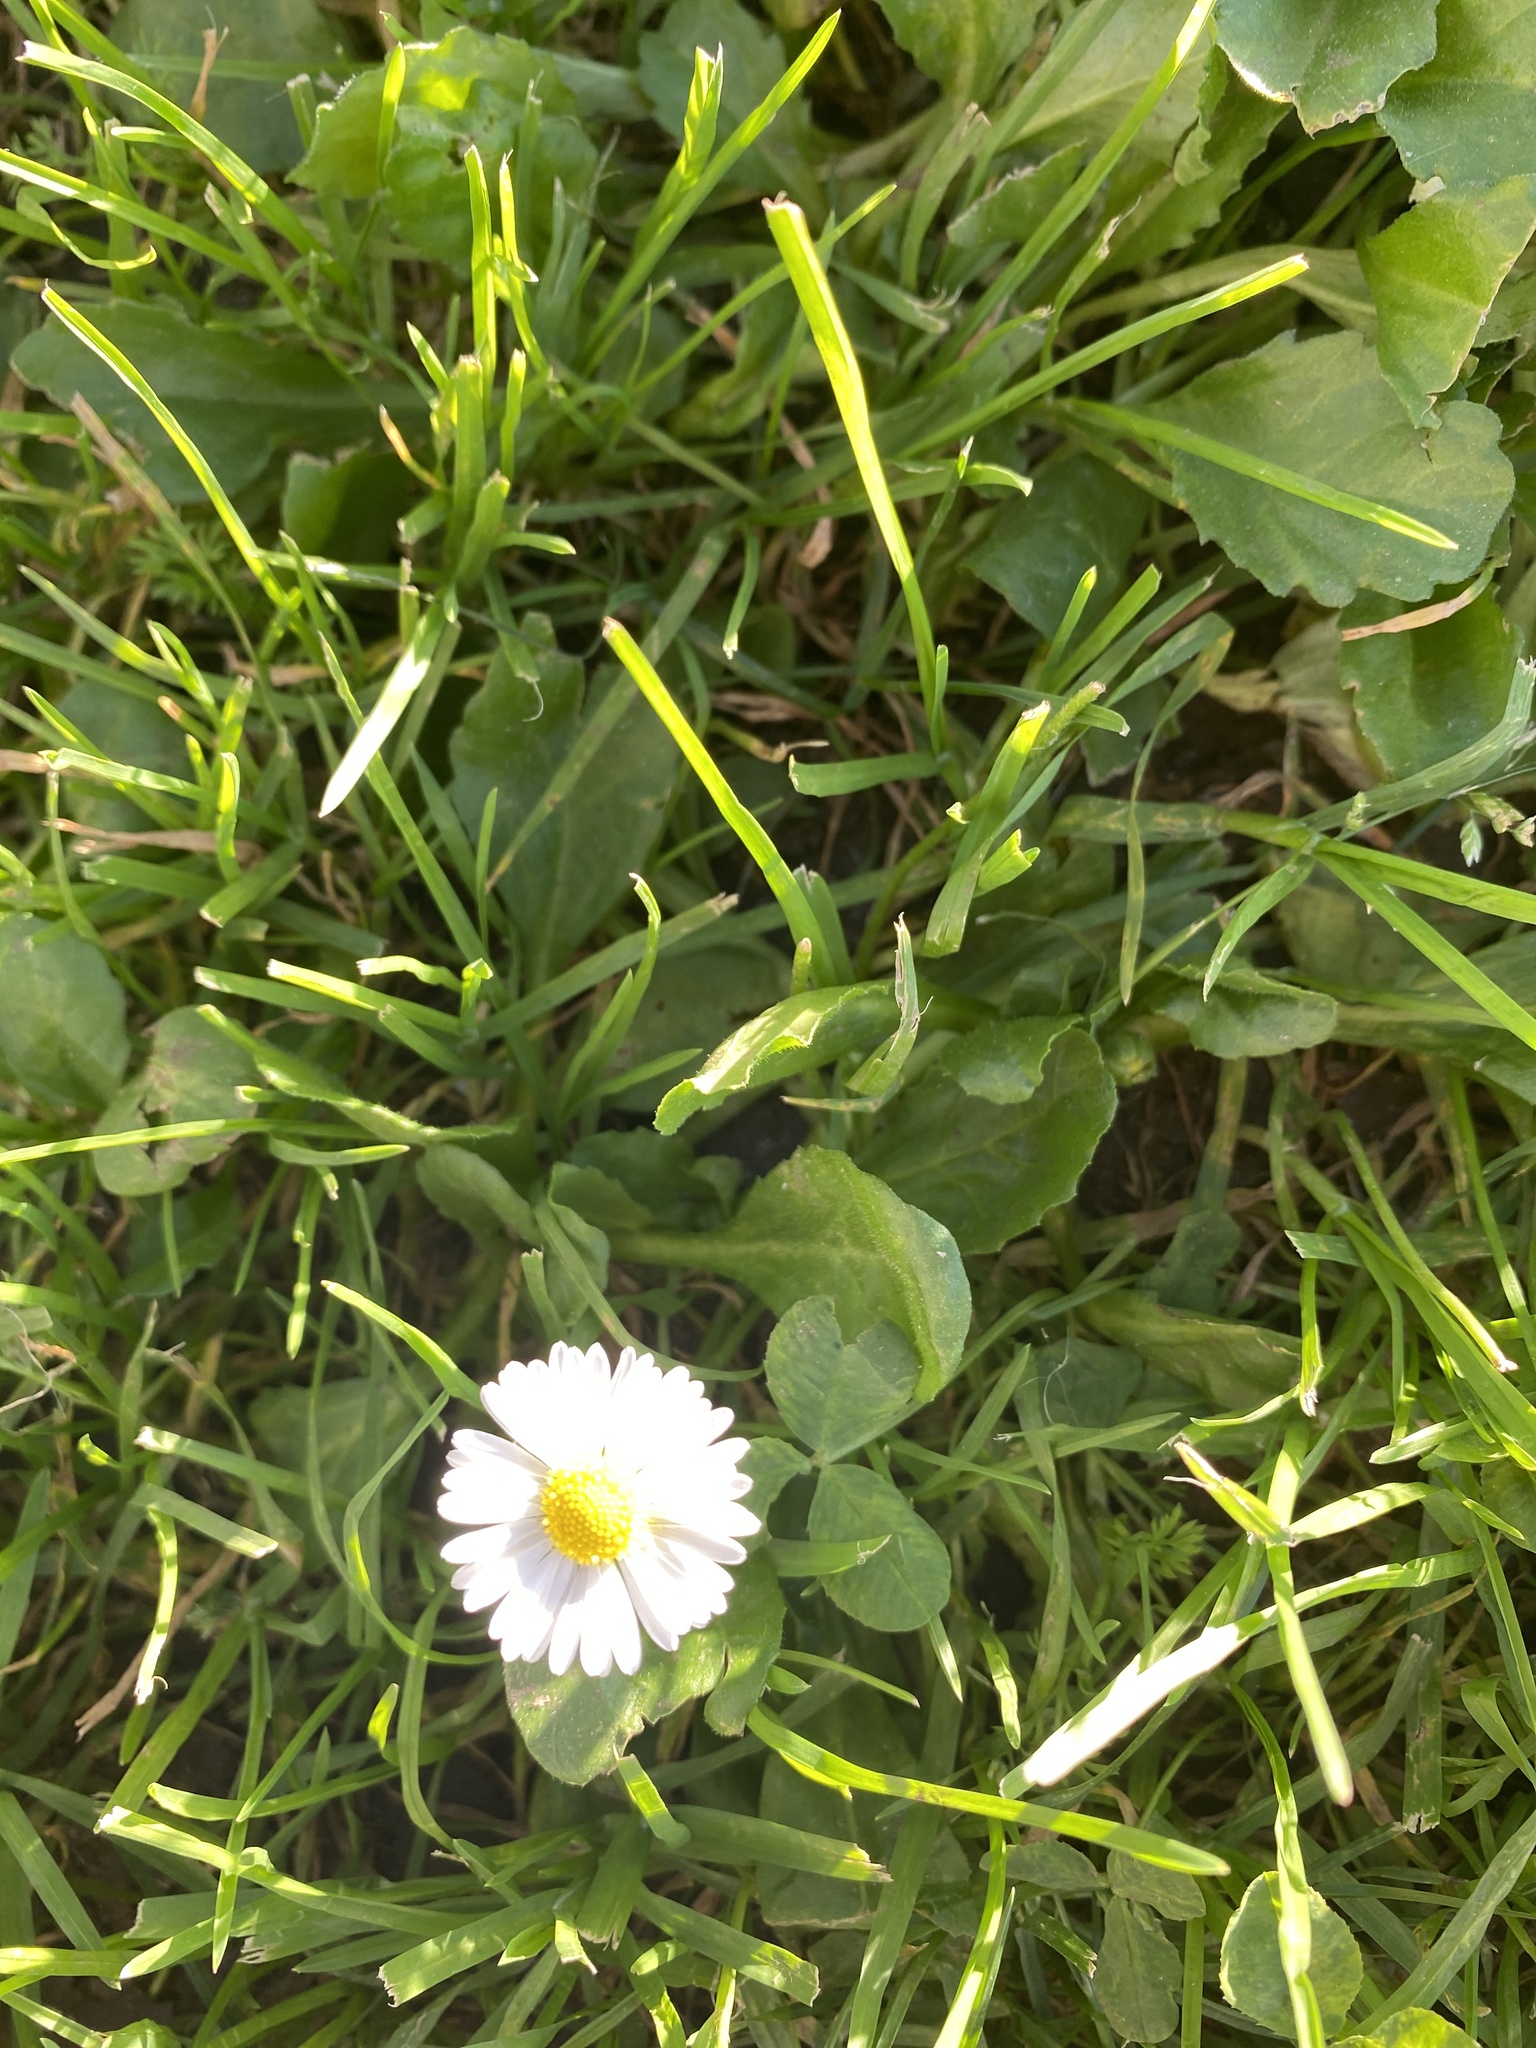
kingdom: Plantae
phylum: Tracheophyta
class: Magnoliopsida
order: Asterales
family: Asteraceae
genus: Bellis
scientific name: Bellis perennis
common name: Lawndaisy
